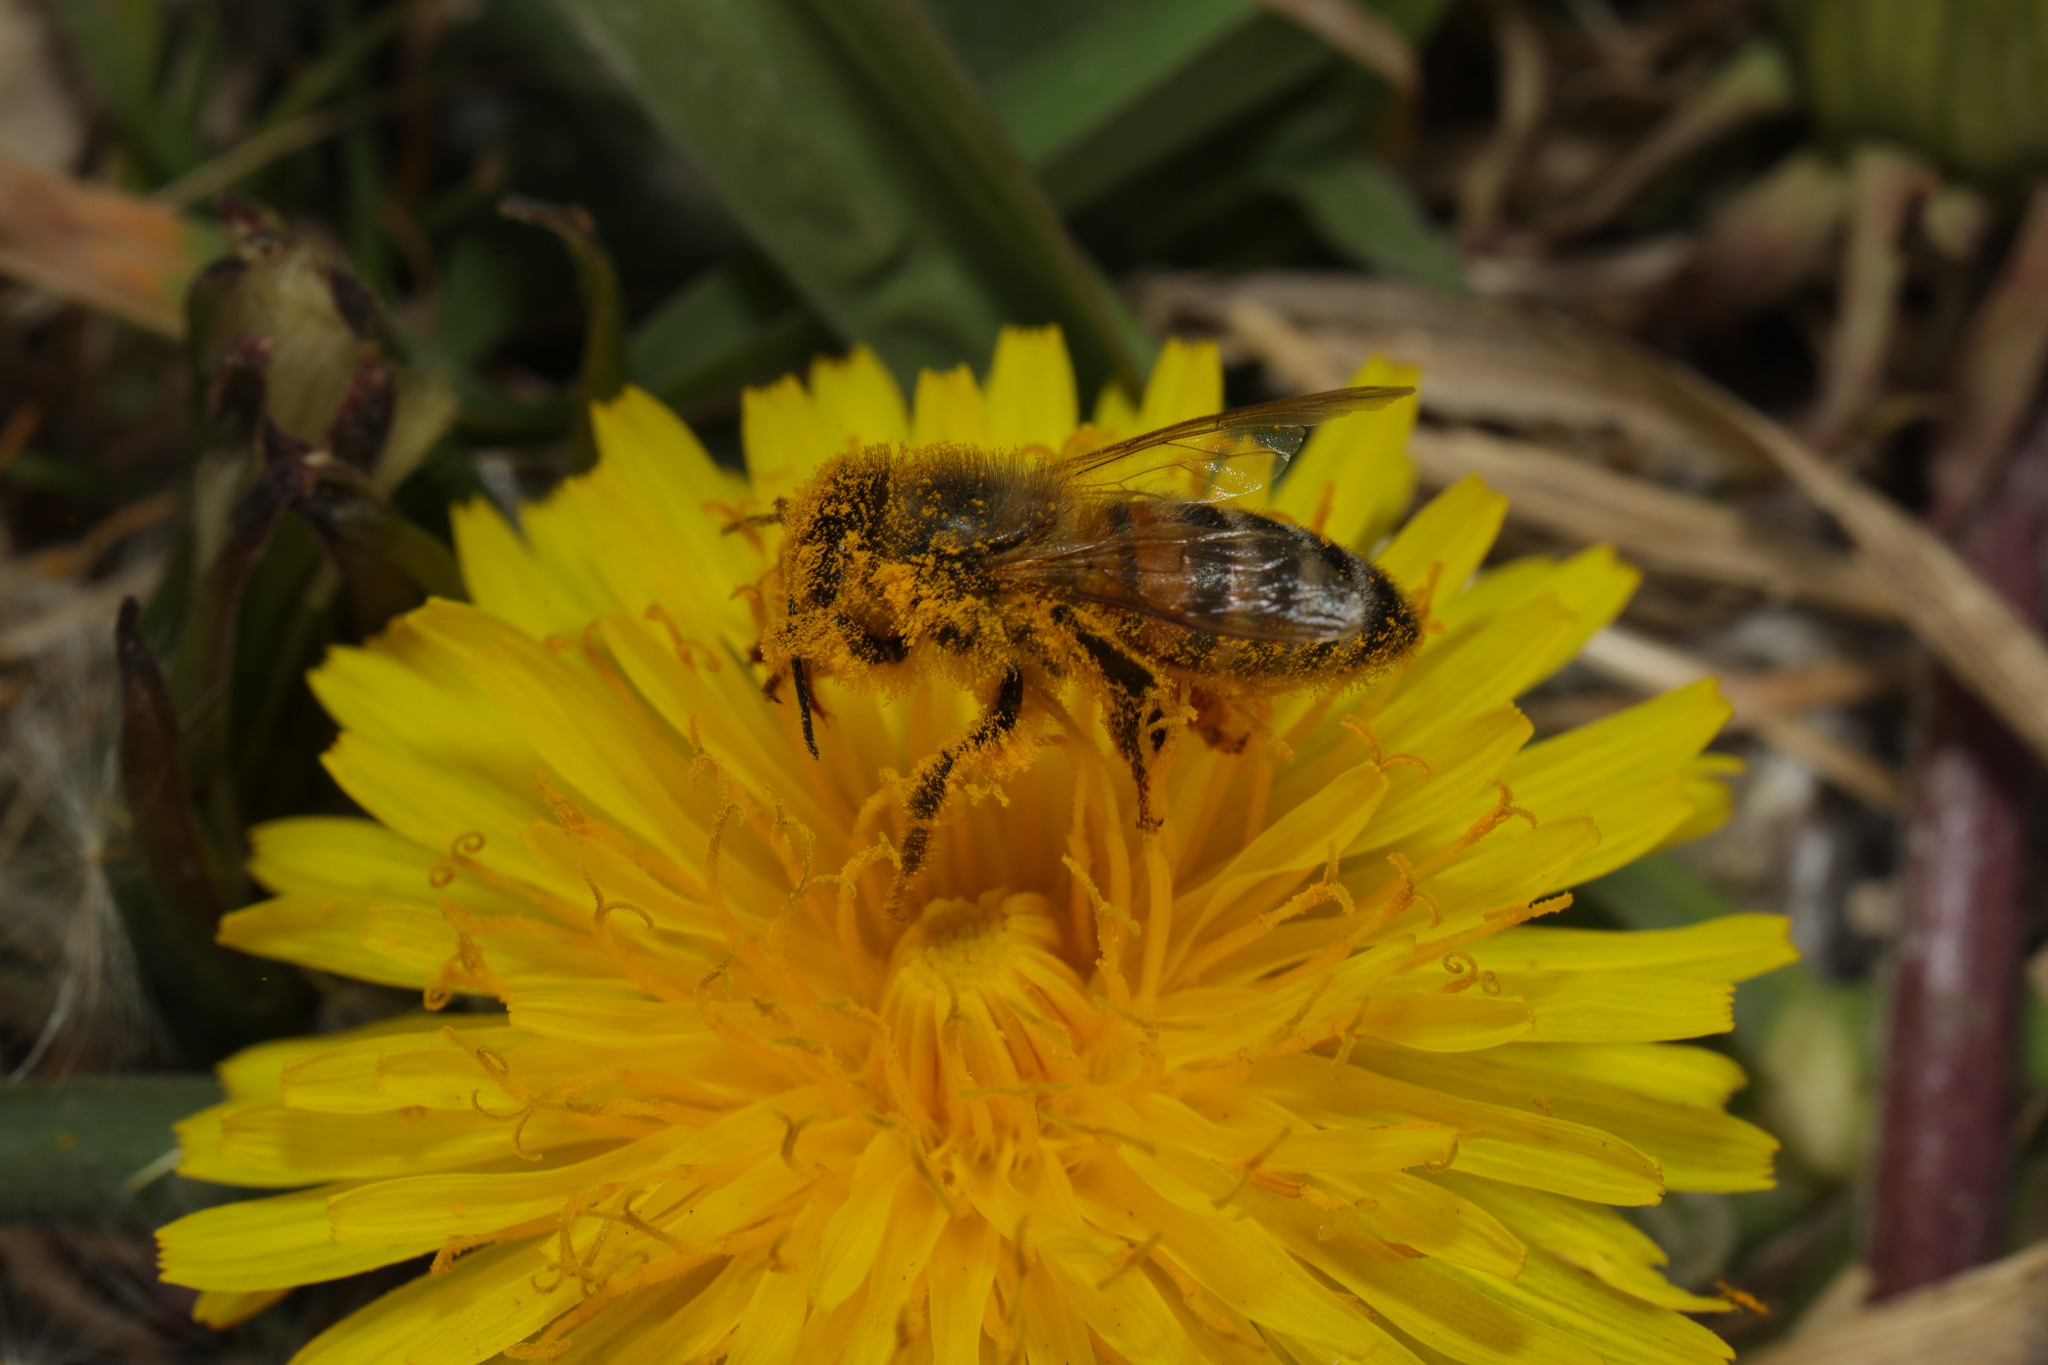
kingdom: Animalia
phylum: Arthropoda
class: Insecta
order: Hymenoptera
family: Apidae
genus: Apis
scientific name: Apis mellifera
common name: Honey bee
